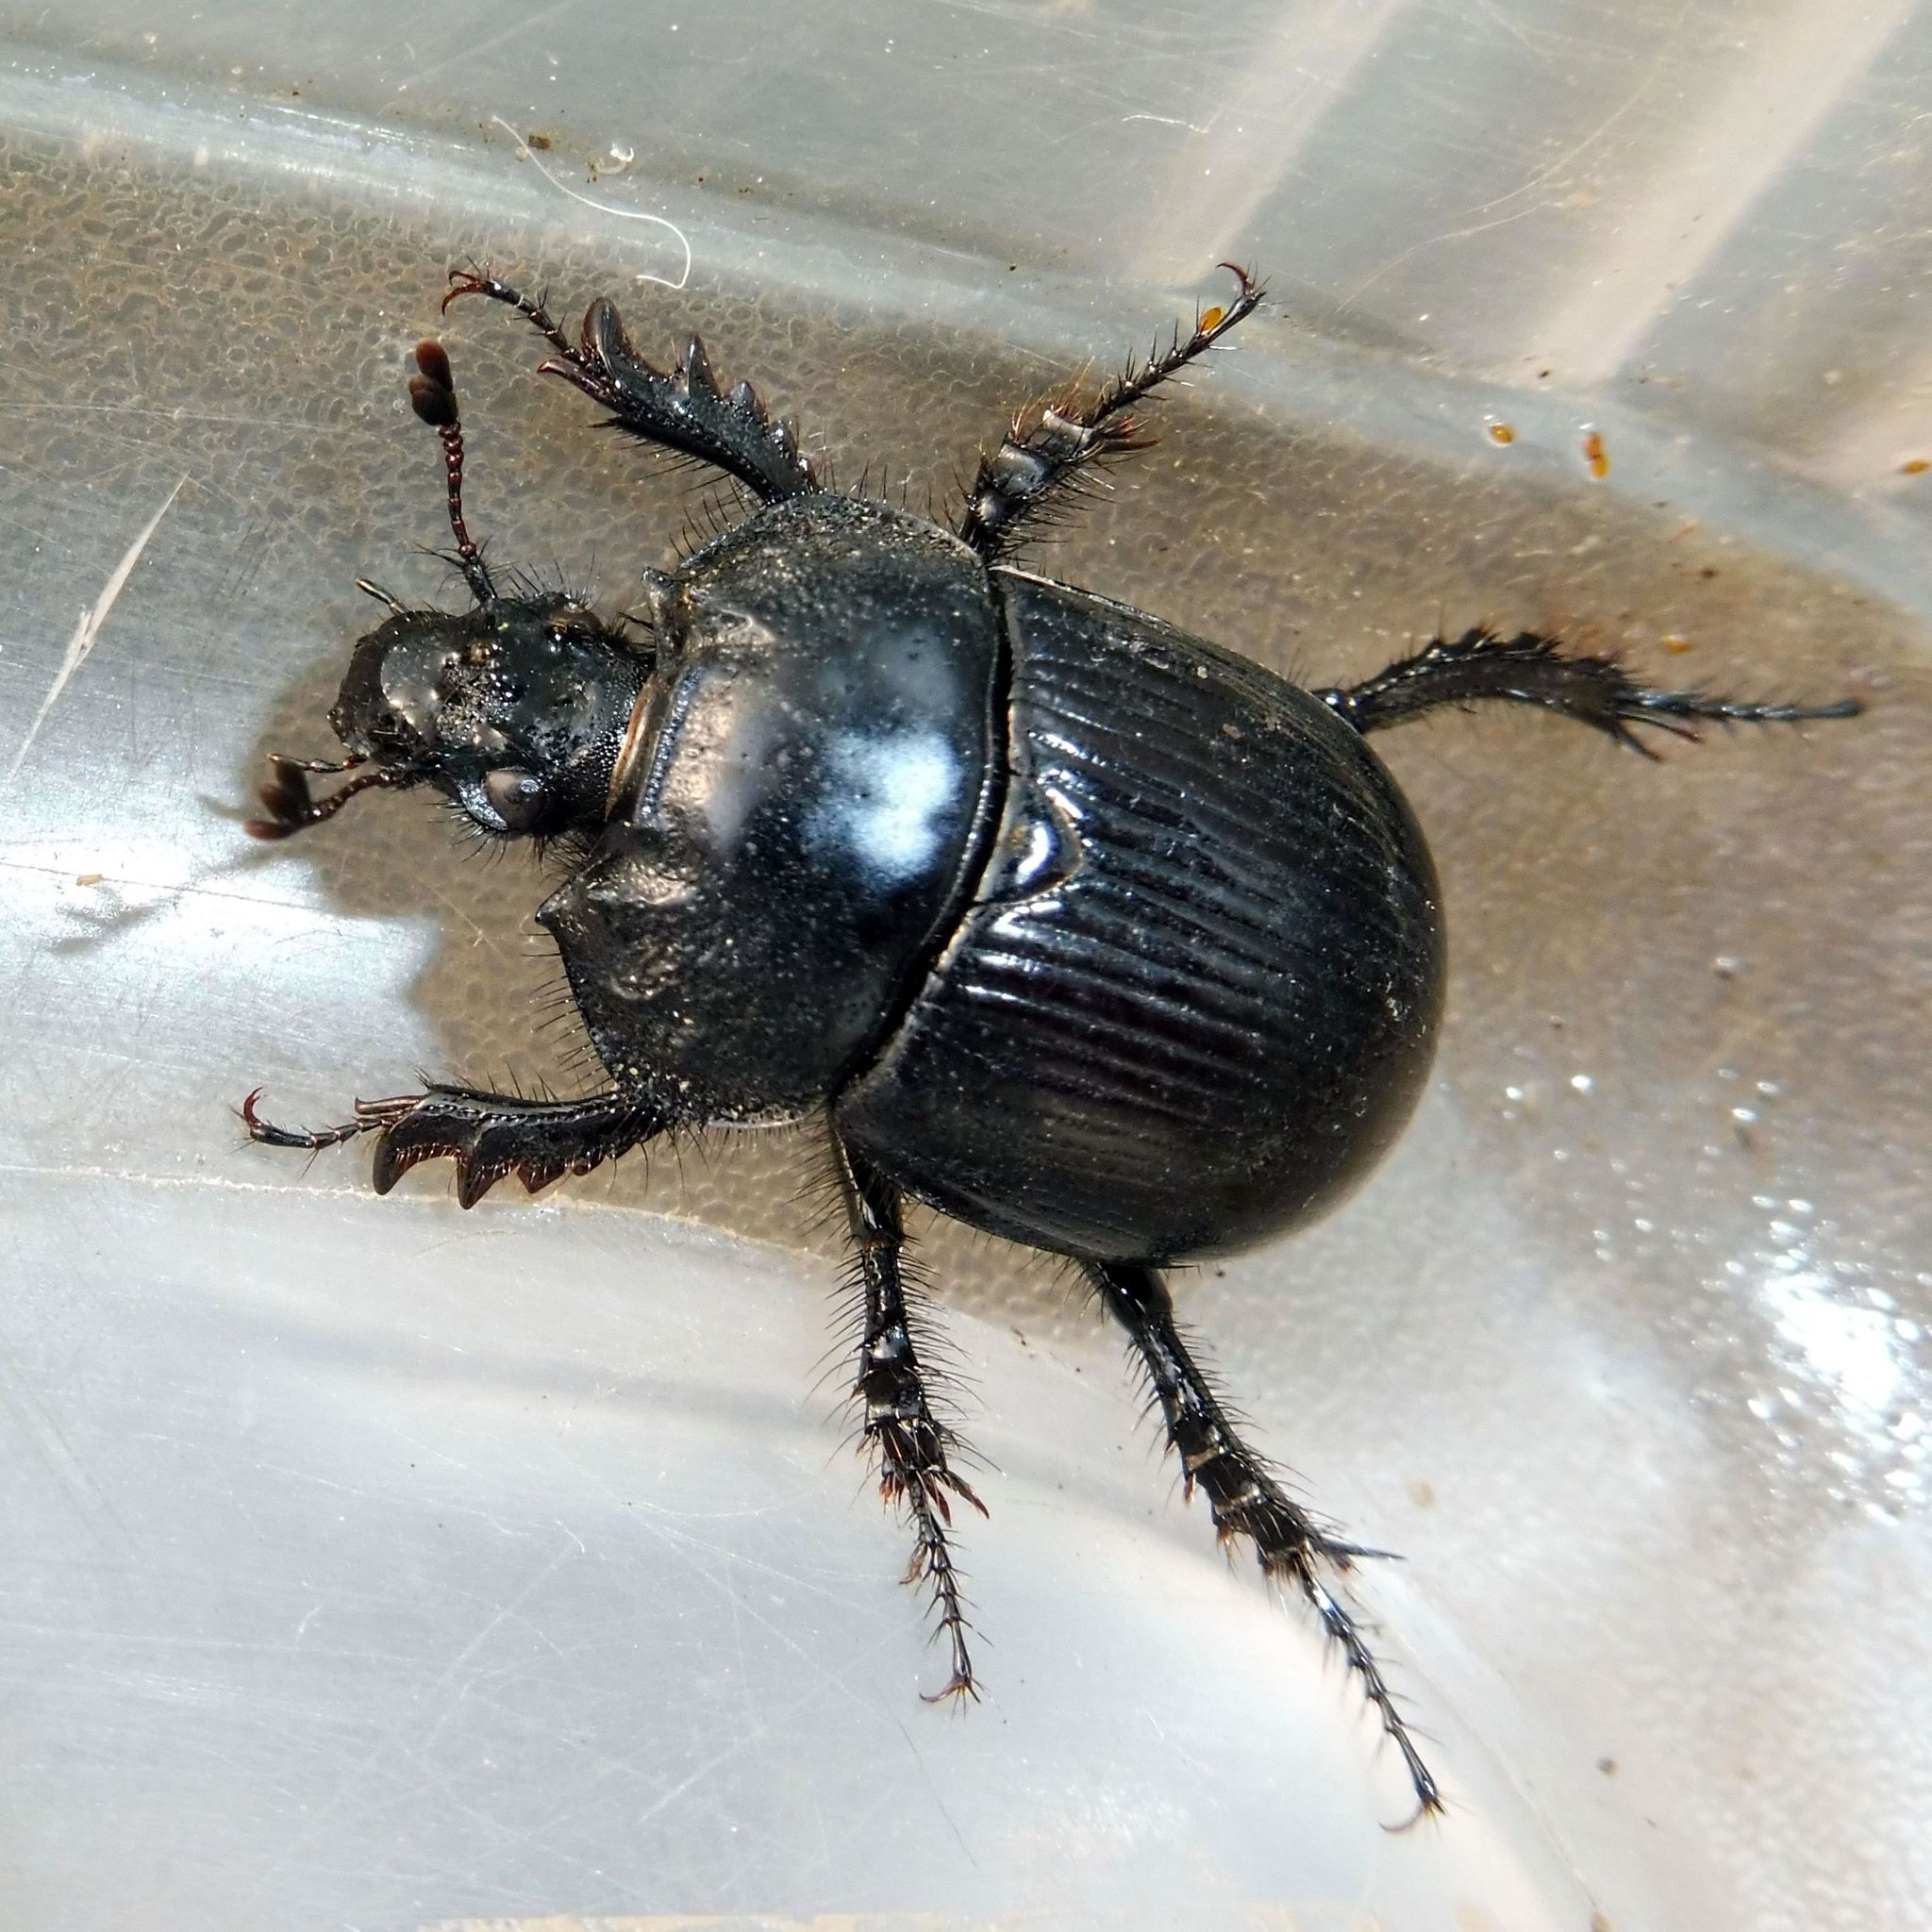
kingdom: Animalia
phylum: Arthropoda
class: Insecta
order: Coleoptera
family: Geotrupidae
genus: Typhaeus
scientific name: Typhaeus typhoeus
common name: Minotaur beetle
